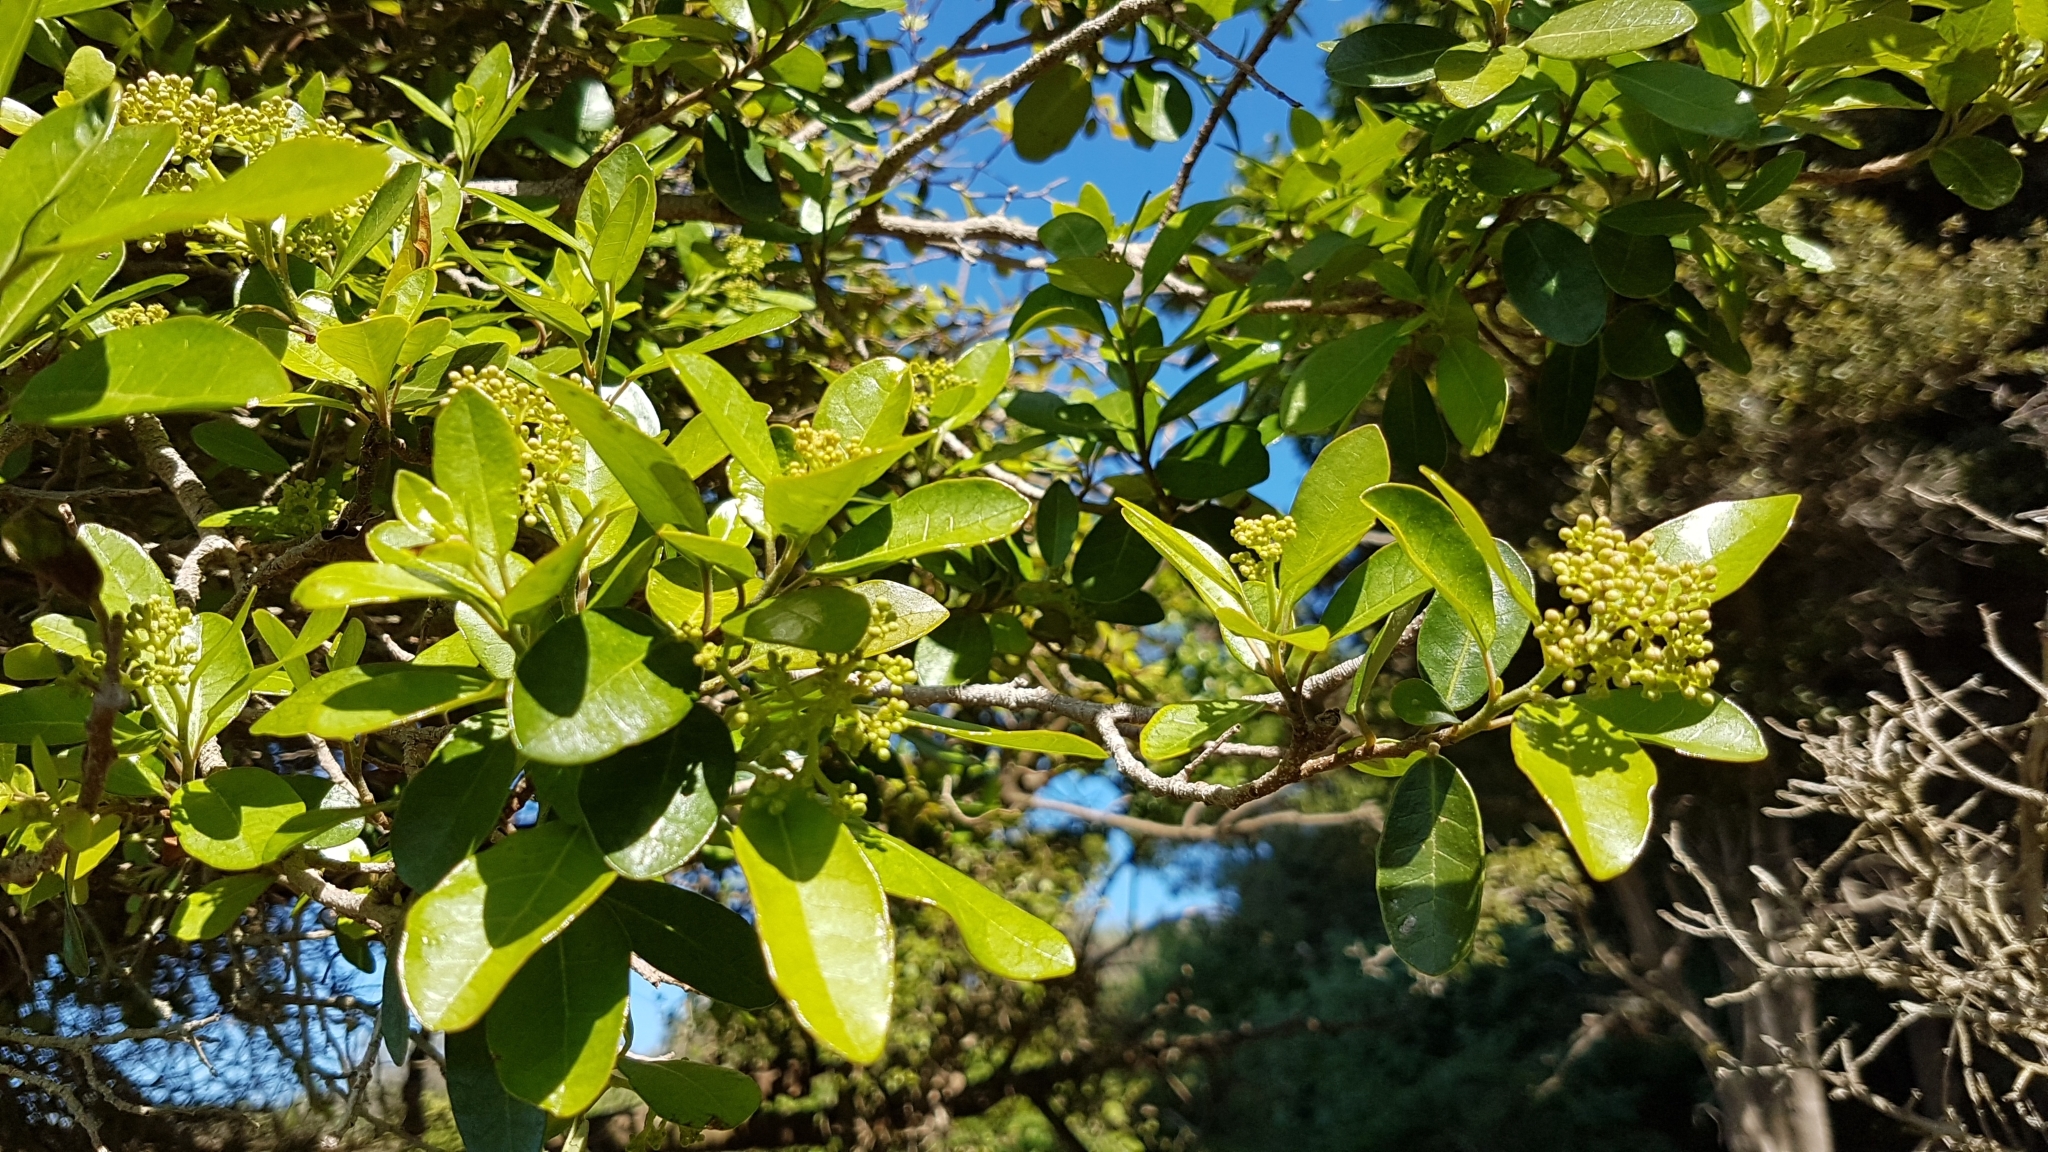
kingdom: Plantae
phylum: Tracheophyta
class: Magnoliopsida
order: Apiales
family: Pennantiaceae
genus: Pennantia
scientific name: Pennantia corymbosa
